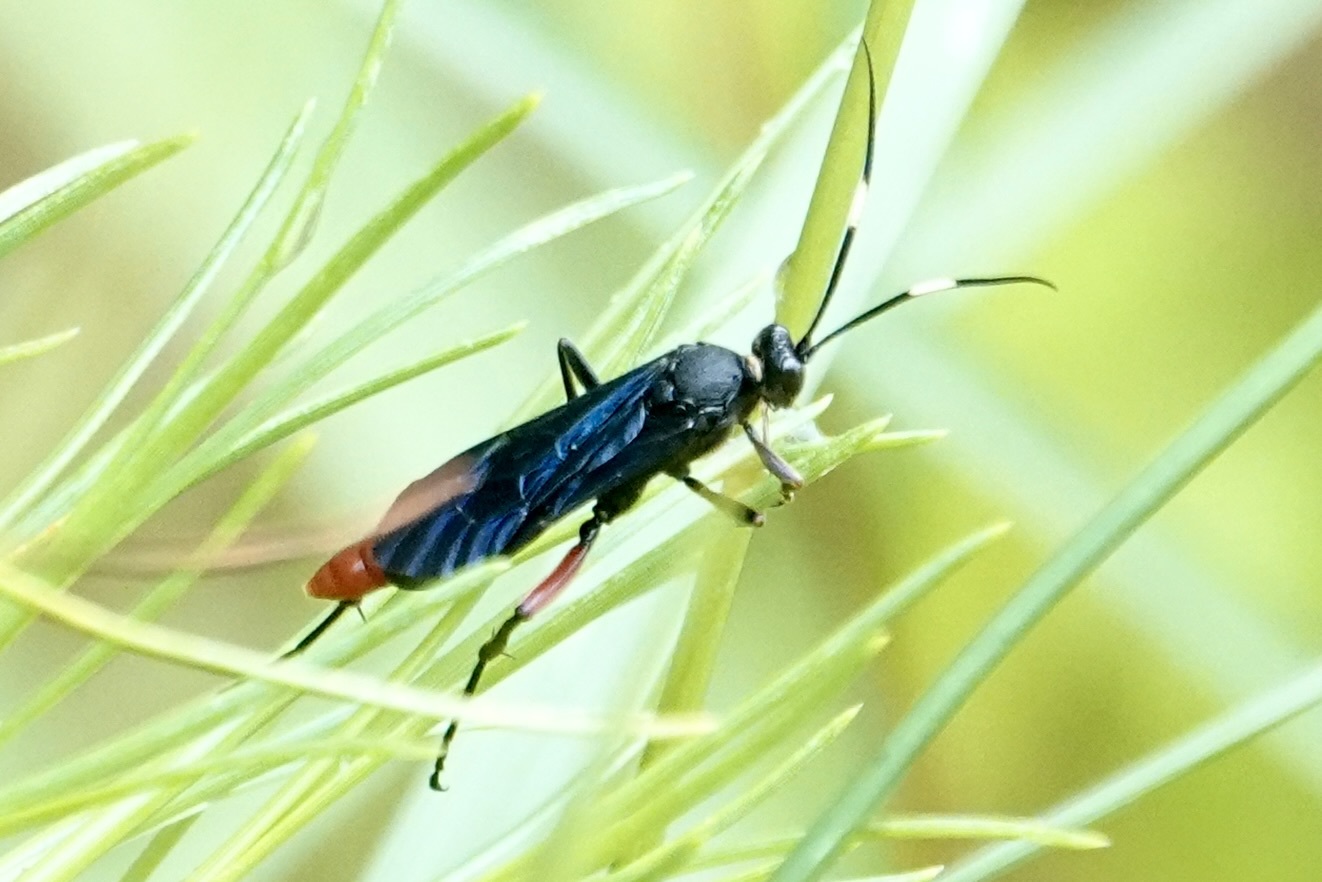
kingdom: Animalia
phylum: Arthropoda
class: Insecta
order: Hymenoptera
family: Ichneumonidae
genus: Limonethe
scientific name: Limonethe maurator
